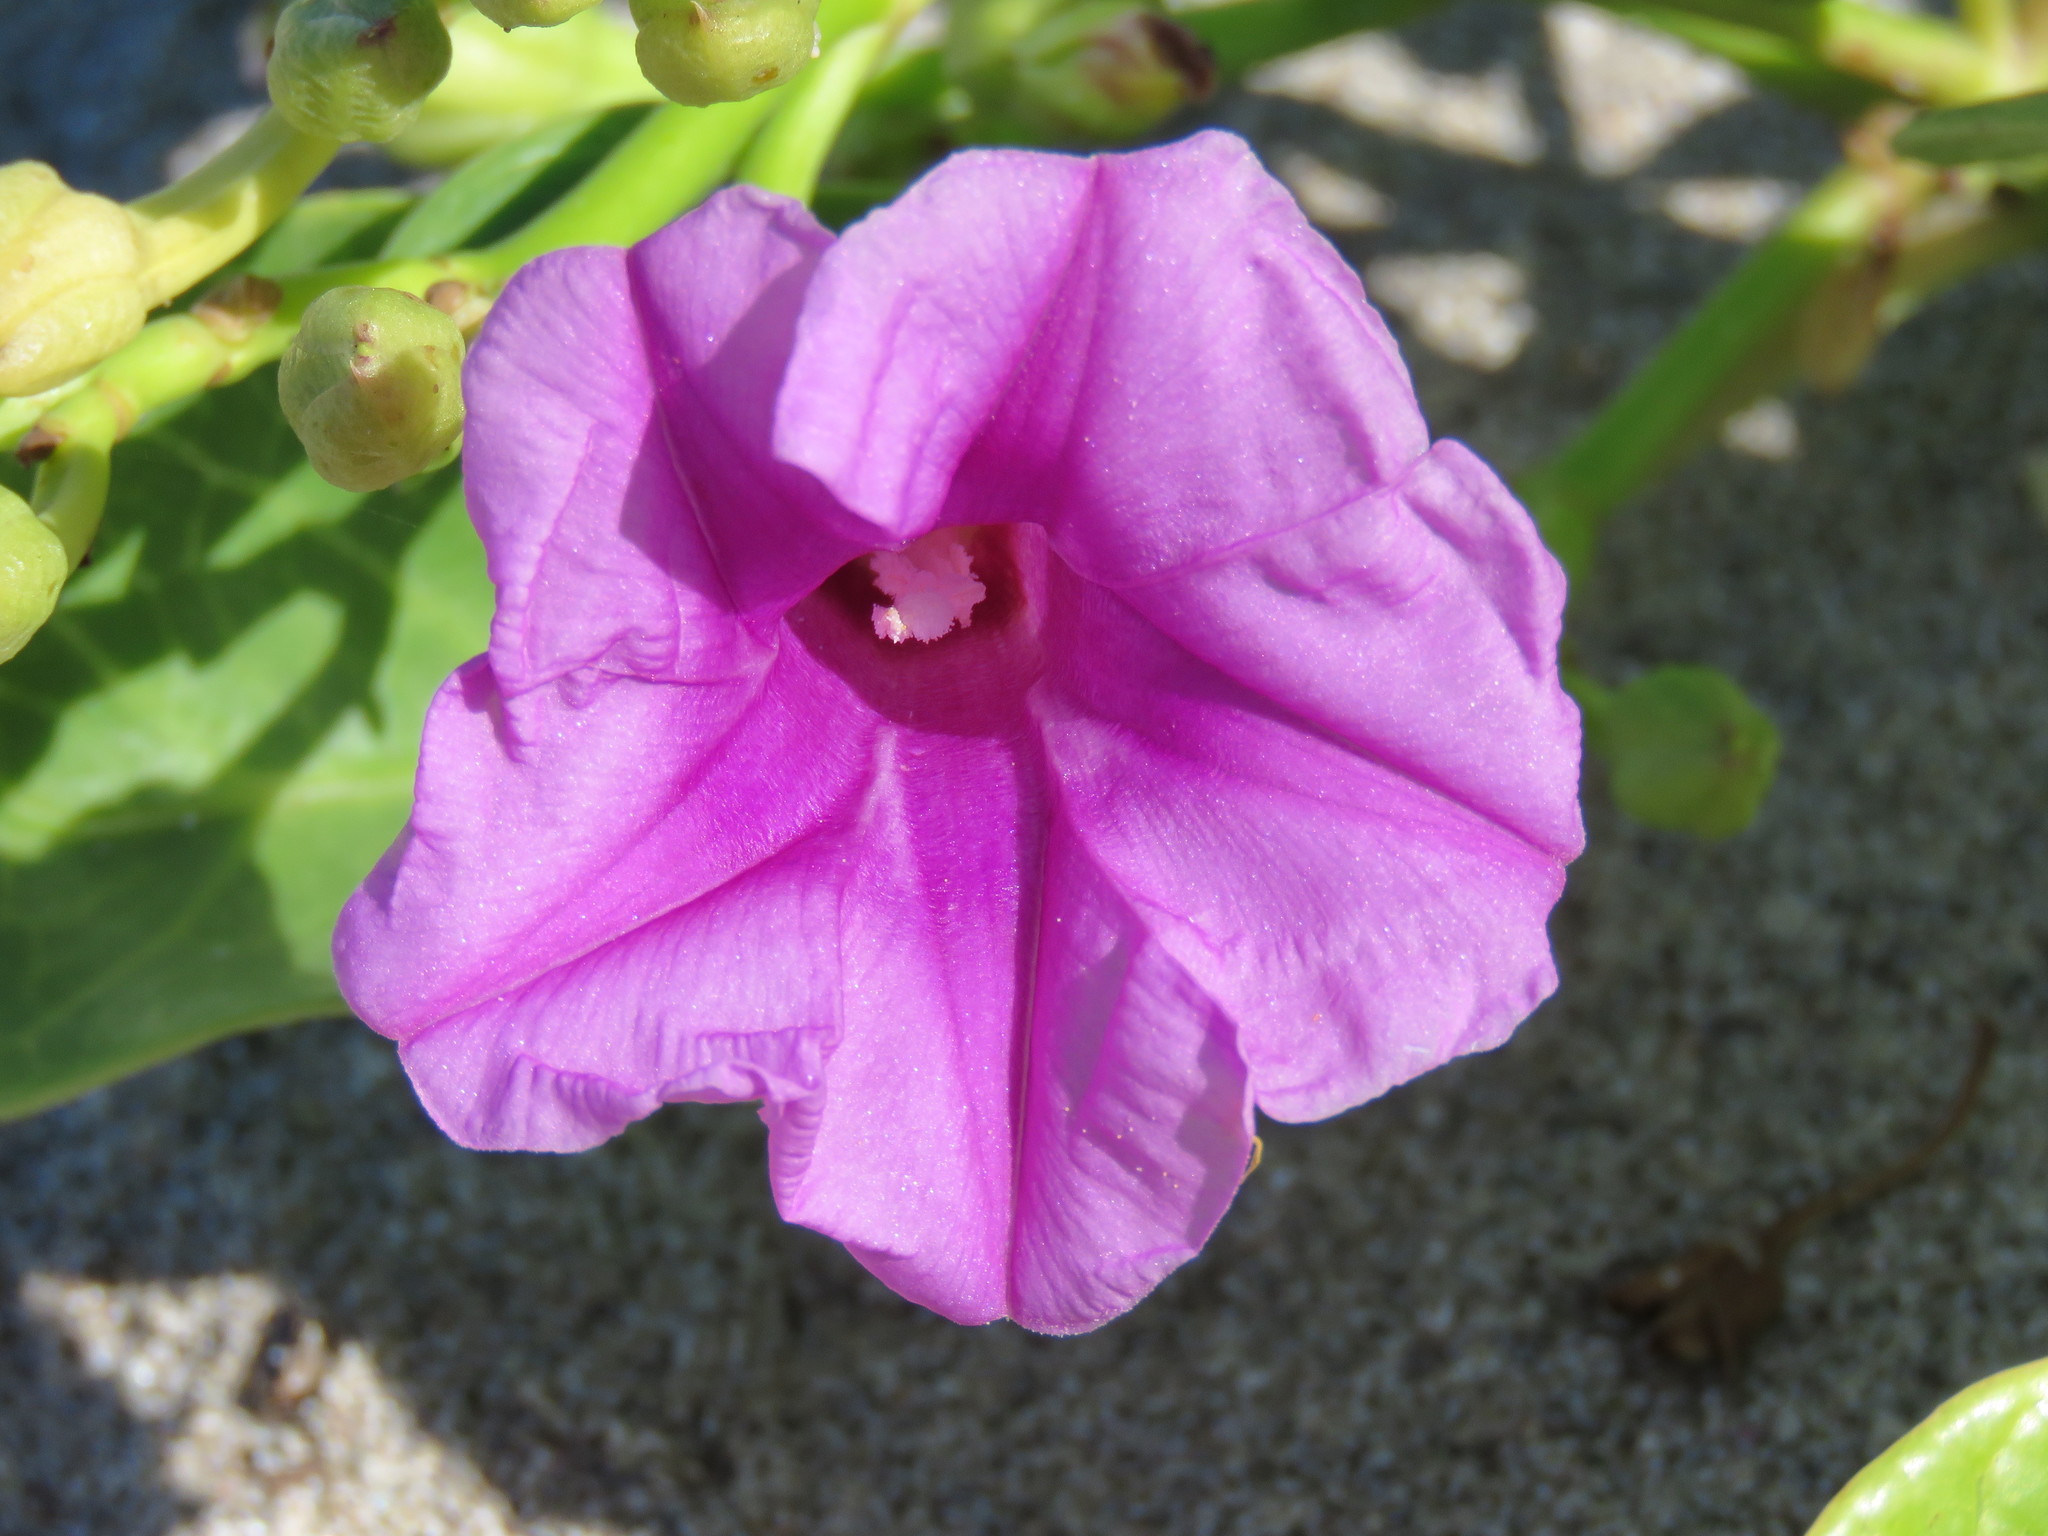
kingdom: Plantae
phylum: Tracheophyta
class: Magnoliopsida
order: Solanales
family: Convolvulaceae
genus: Ipomoea
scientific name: Ipomoea pes-caprae
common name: Beach morning glory
